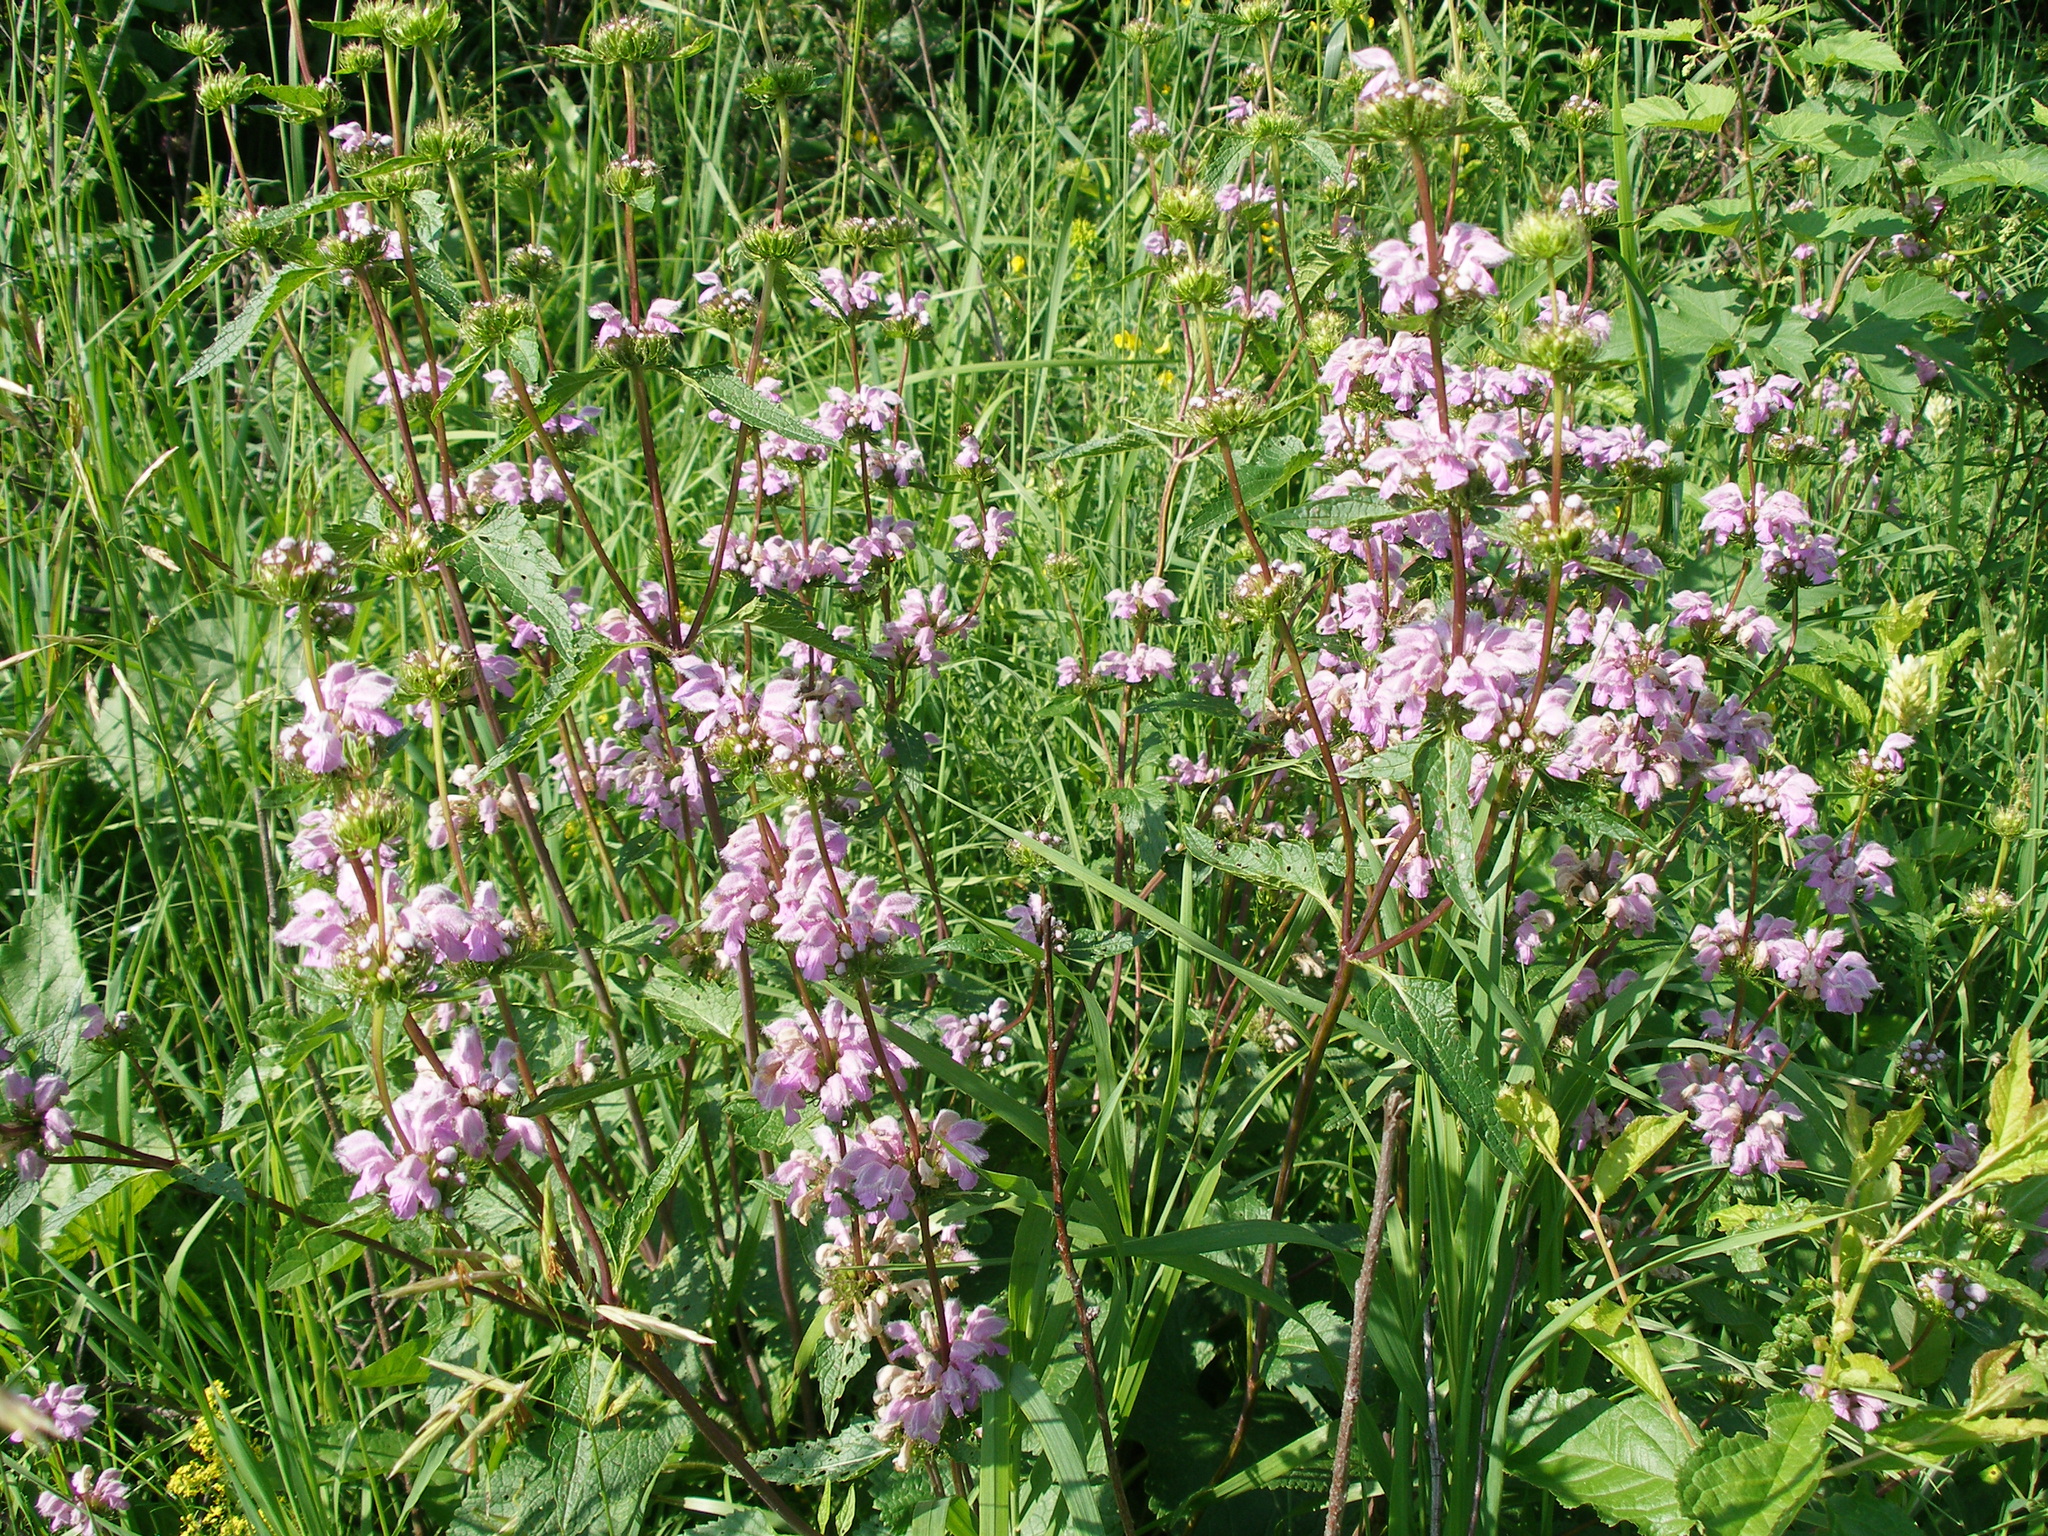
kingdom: Plantae
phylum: Tracheophyta
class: Magnoliopsida
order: Lamiales
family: Lamiaceae
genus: Phlomoides
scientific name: Phlomoides tuberosa
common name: Tuberous jerusalem sage
